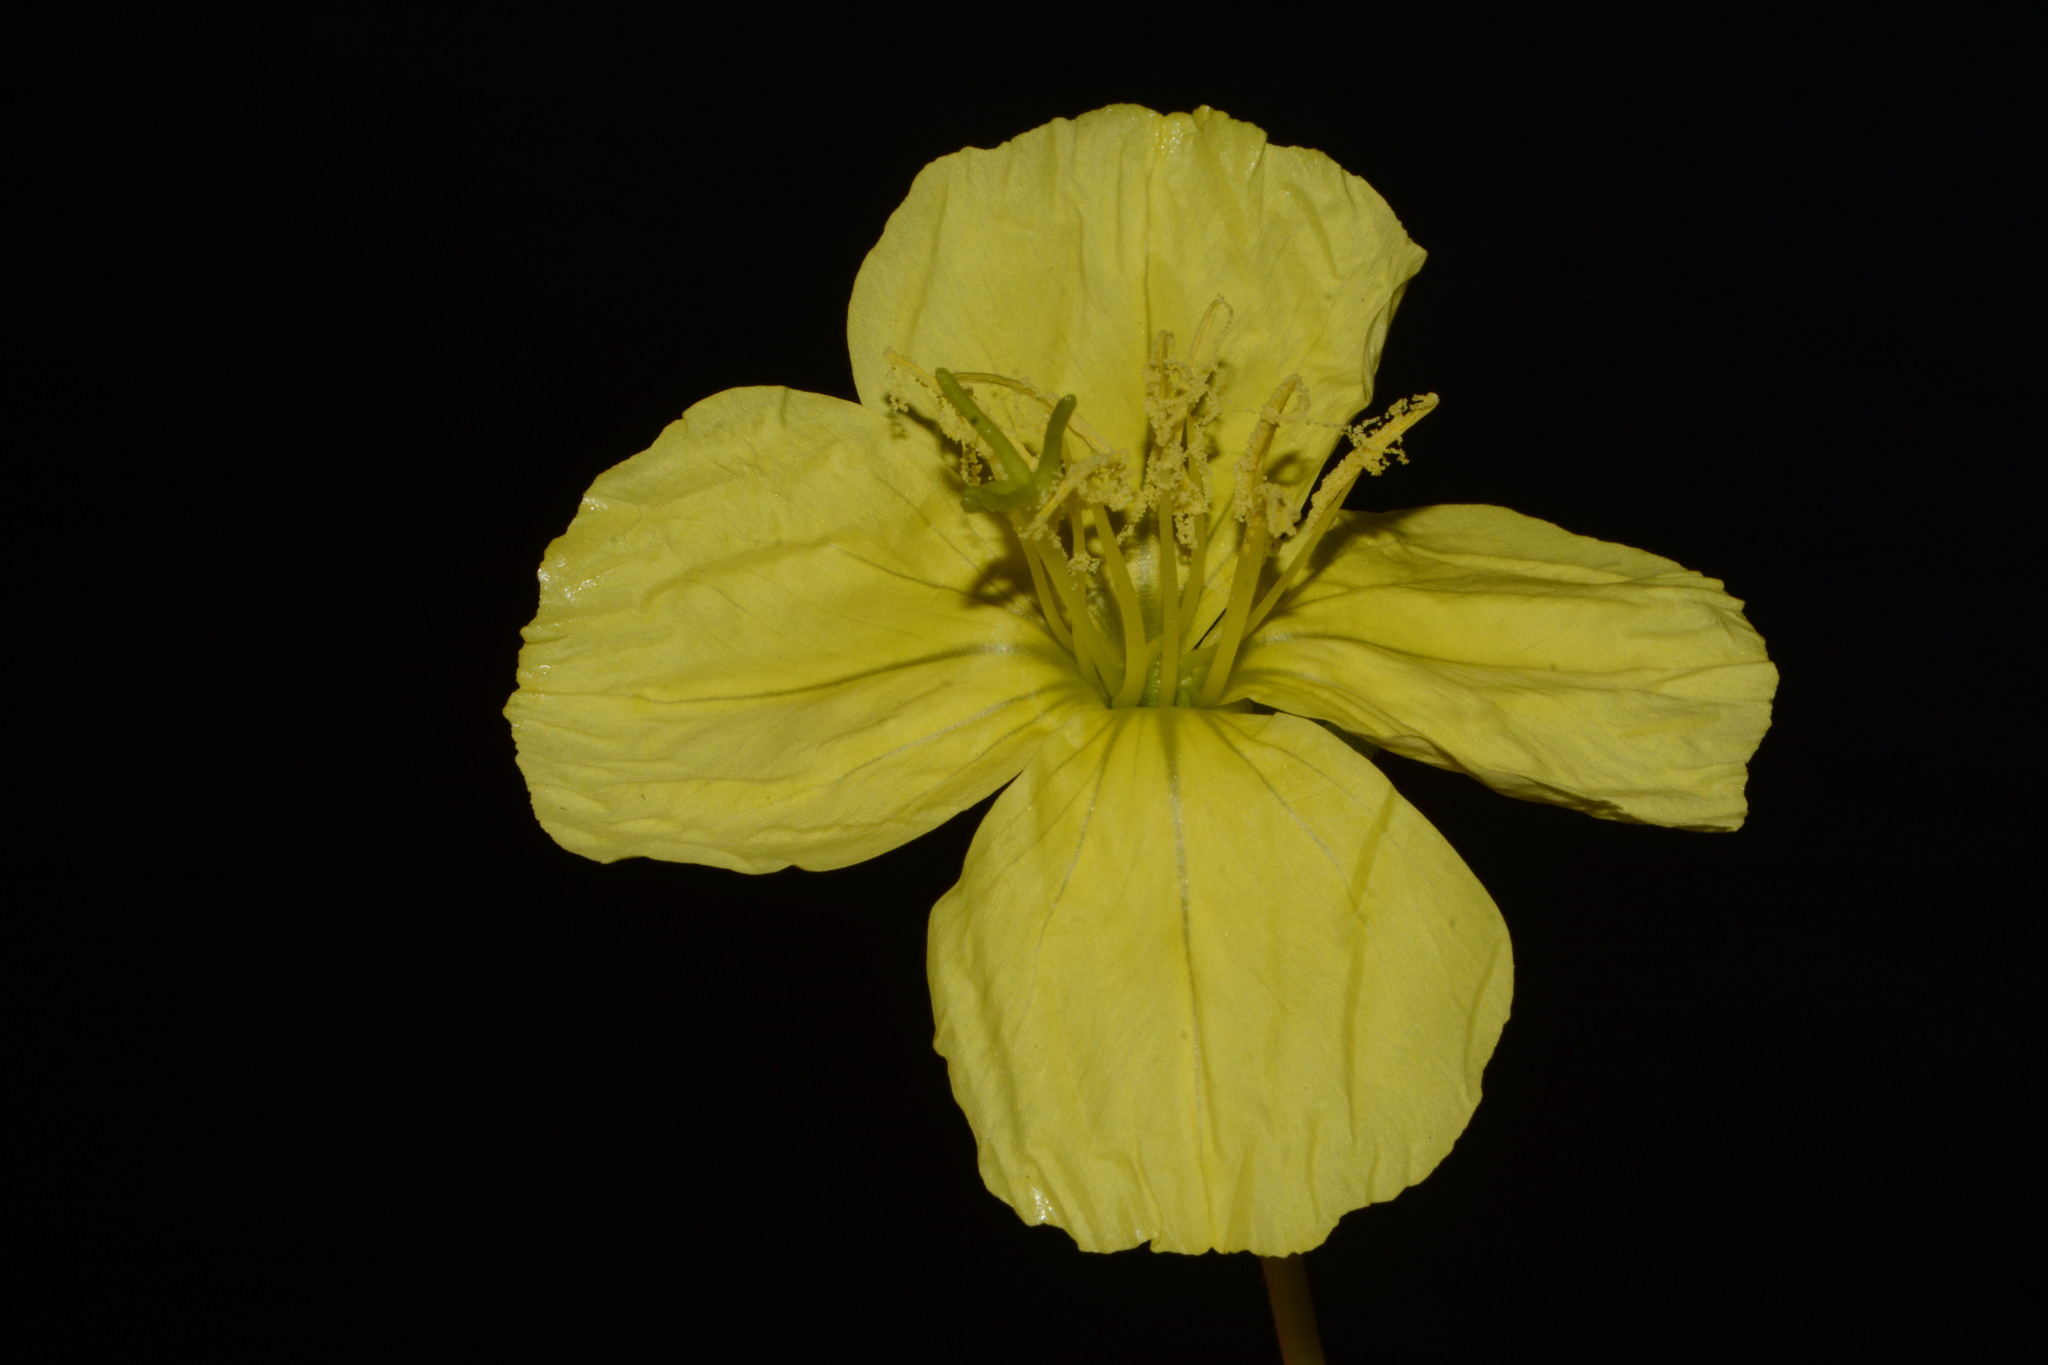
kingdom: Plantae
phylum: Tracheophyta
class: Magnoliopsida
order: Myrtales
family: Onagraceae
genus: Oenothera
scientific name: Oenothera flava
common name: Long-tubed evening-primrose
